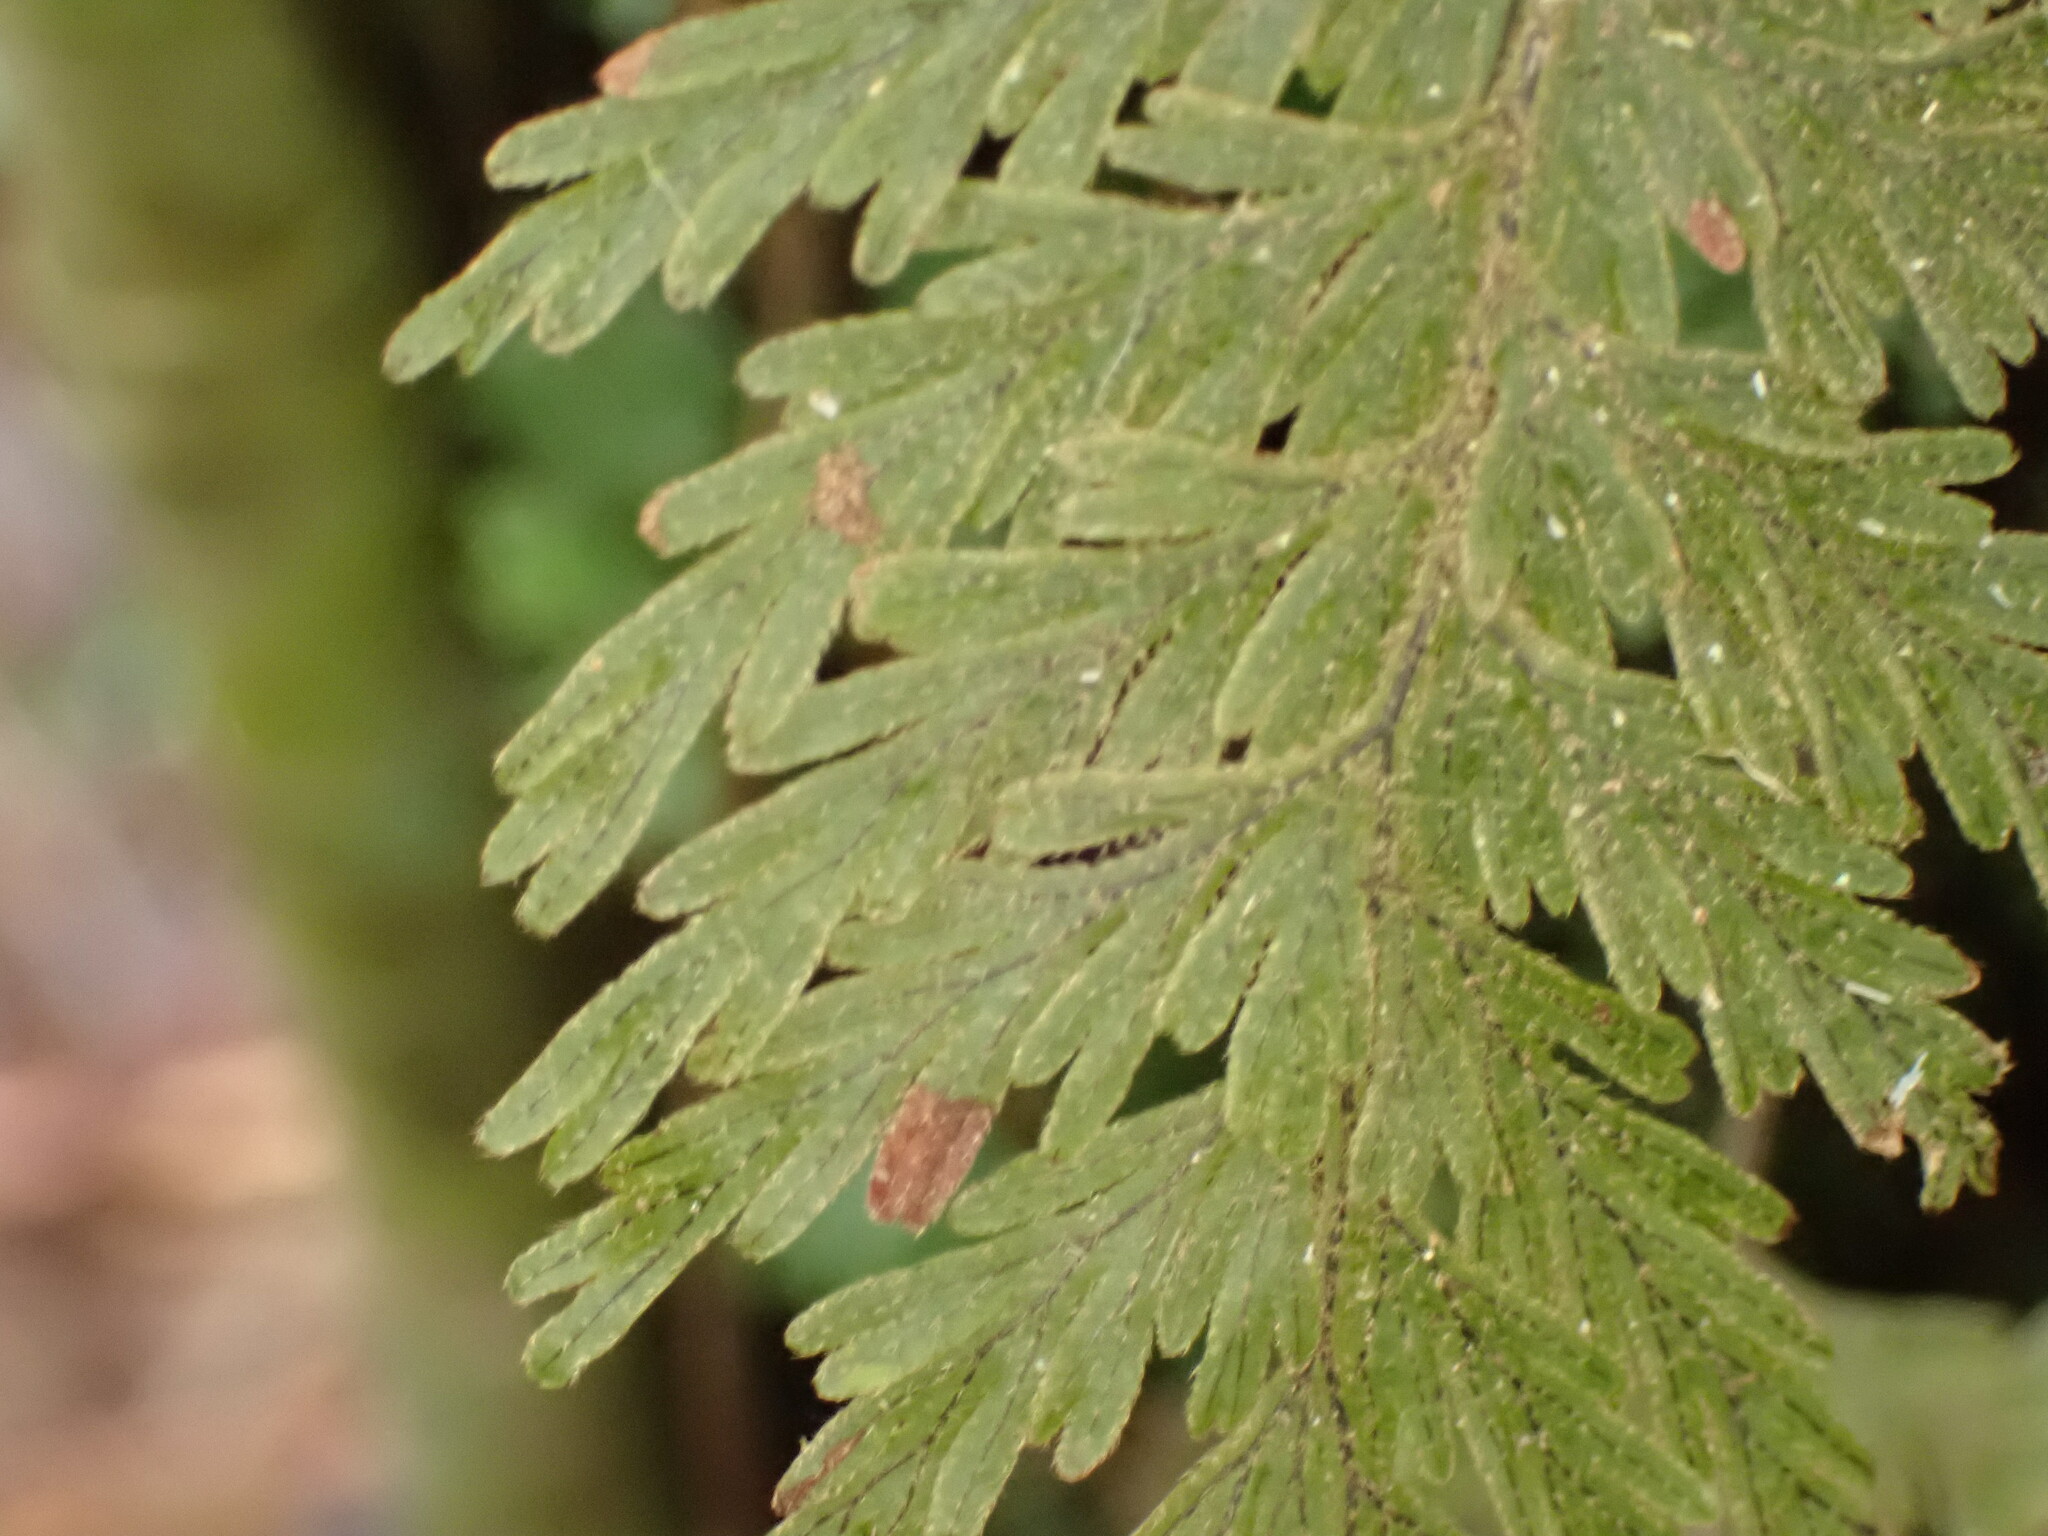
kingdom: Plantae
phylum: Tracheophyta
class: Polypodiopsida
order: Hymenophyllales
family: Hymenophyllaceae
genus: Hymenophyllum
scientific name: Hymenophyllum frankliniae
